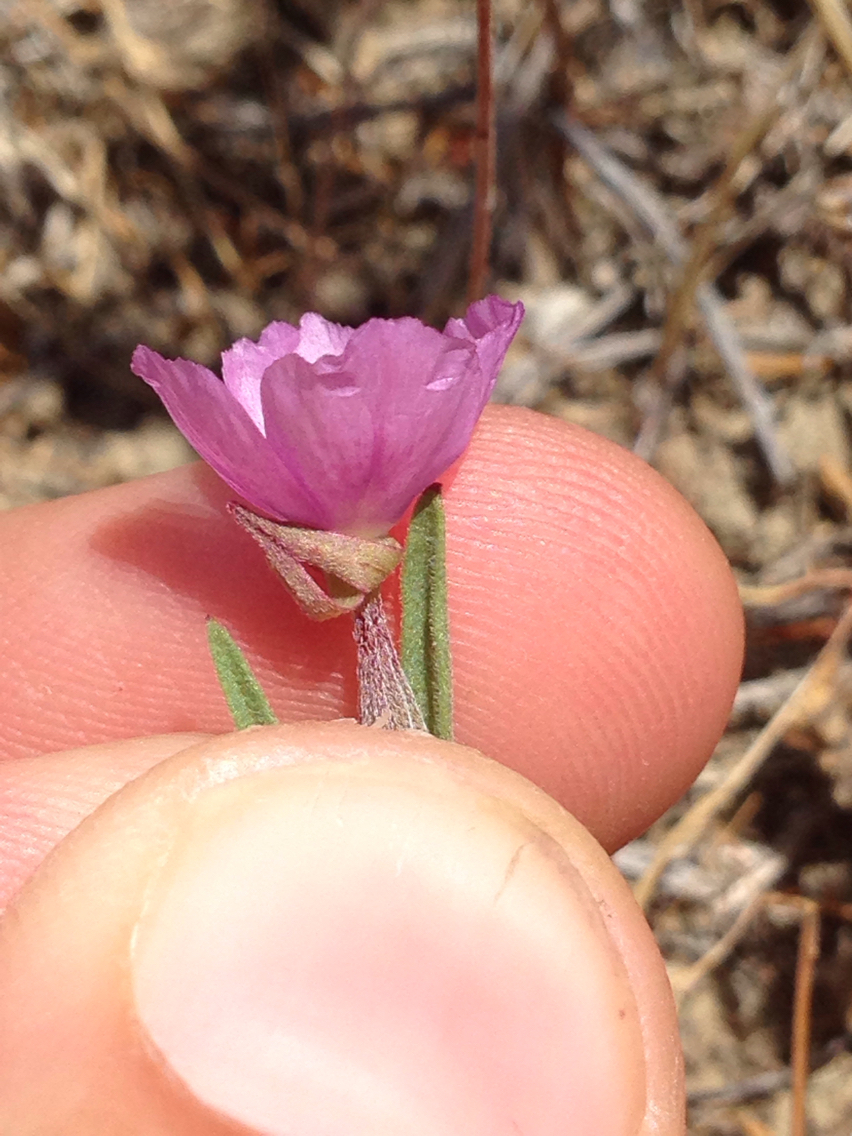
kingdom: Plantae
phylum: Tracheophyta
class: Magnoliopsida
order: Myrtales
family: Onagraceae
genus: Clarkia
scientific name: Clarkia affinis
